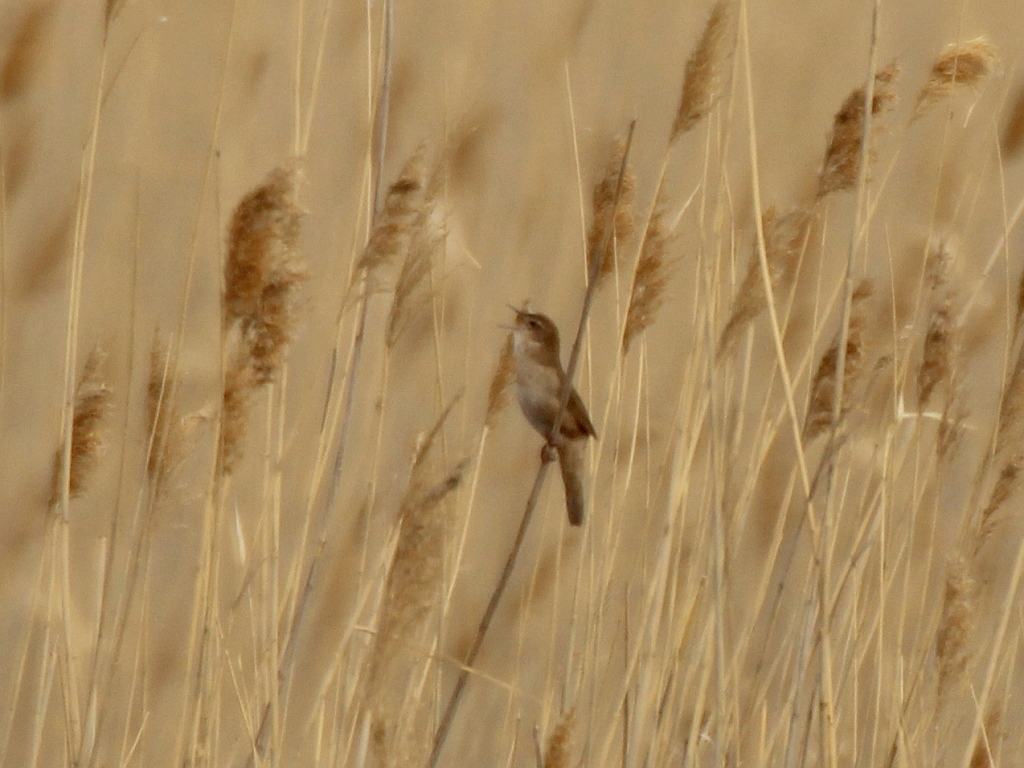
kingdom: Animalia
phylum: Chordata
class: Aves
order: Passeriformes
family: Locustellidae
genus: Locustella
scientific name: Locustella luscinioides
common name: Savi's warbler
